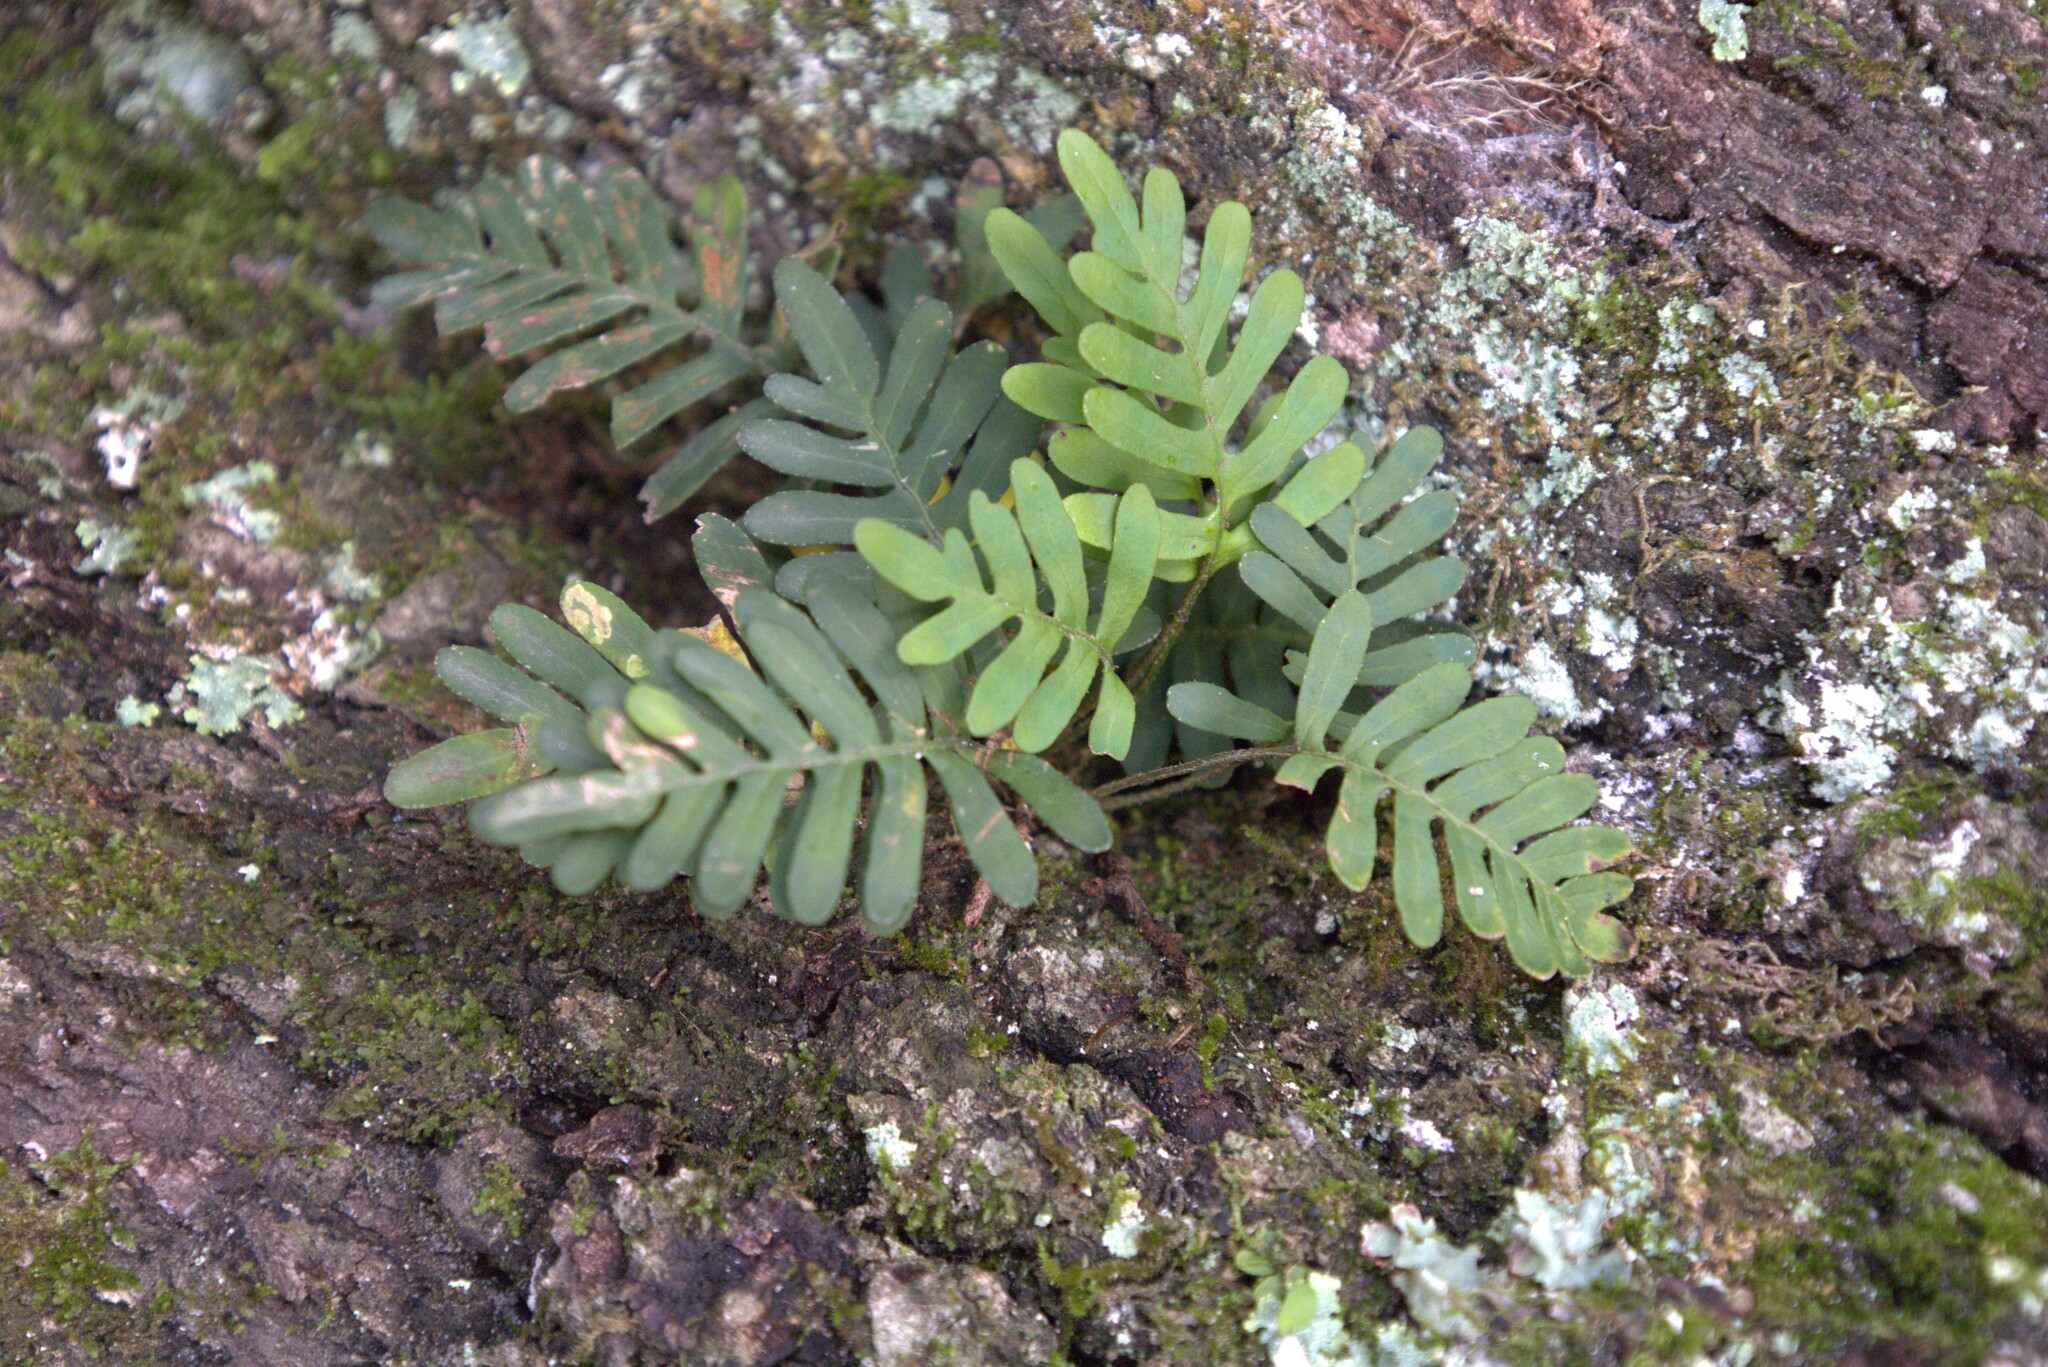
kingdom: Plantae
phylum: Tracheophyta
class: Polypodiopsida
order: Polypodiales
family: Polypodiaceae
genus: Pleopeltis
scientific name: Pleopeltis michauxiana
